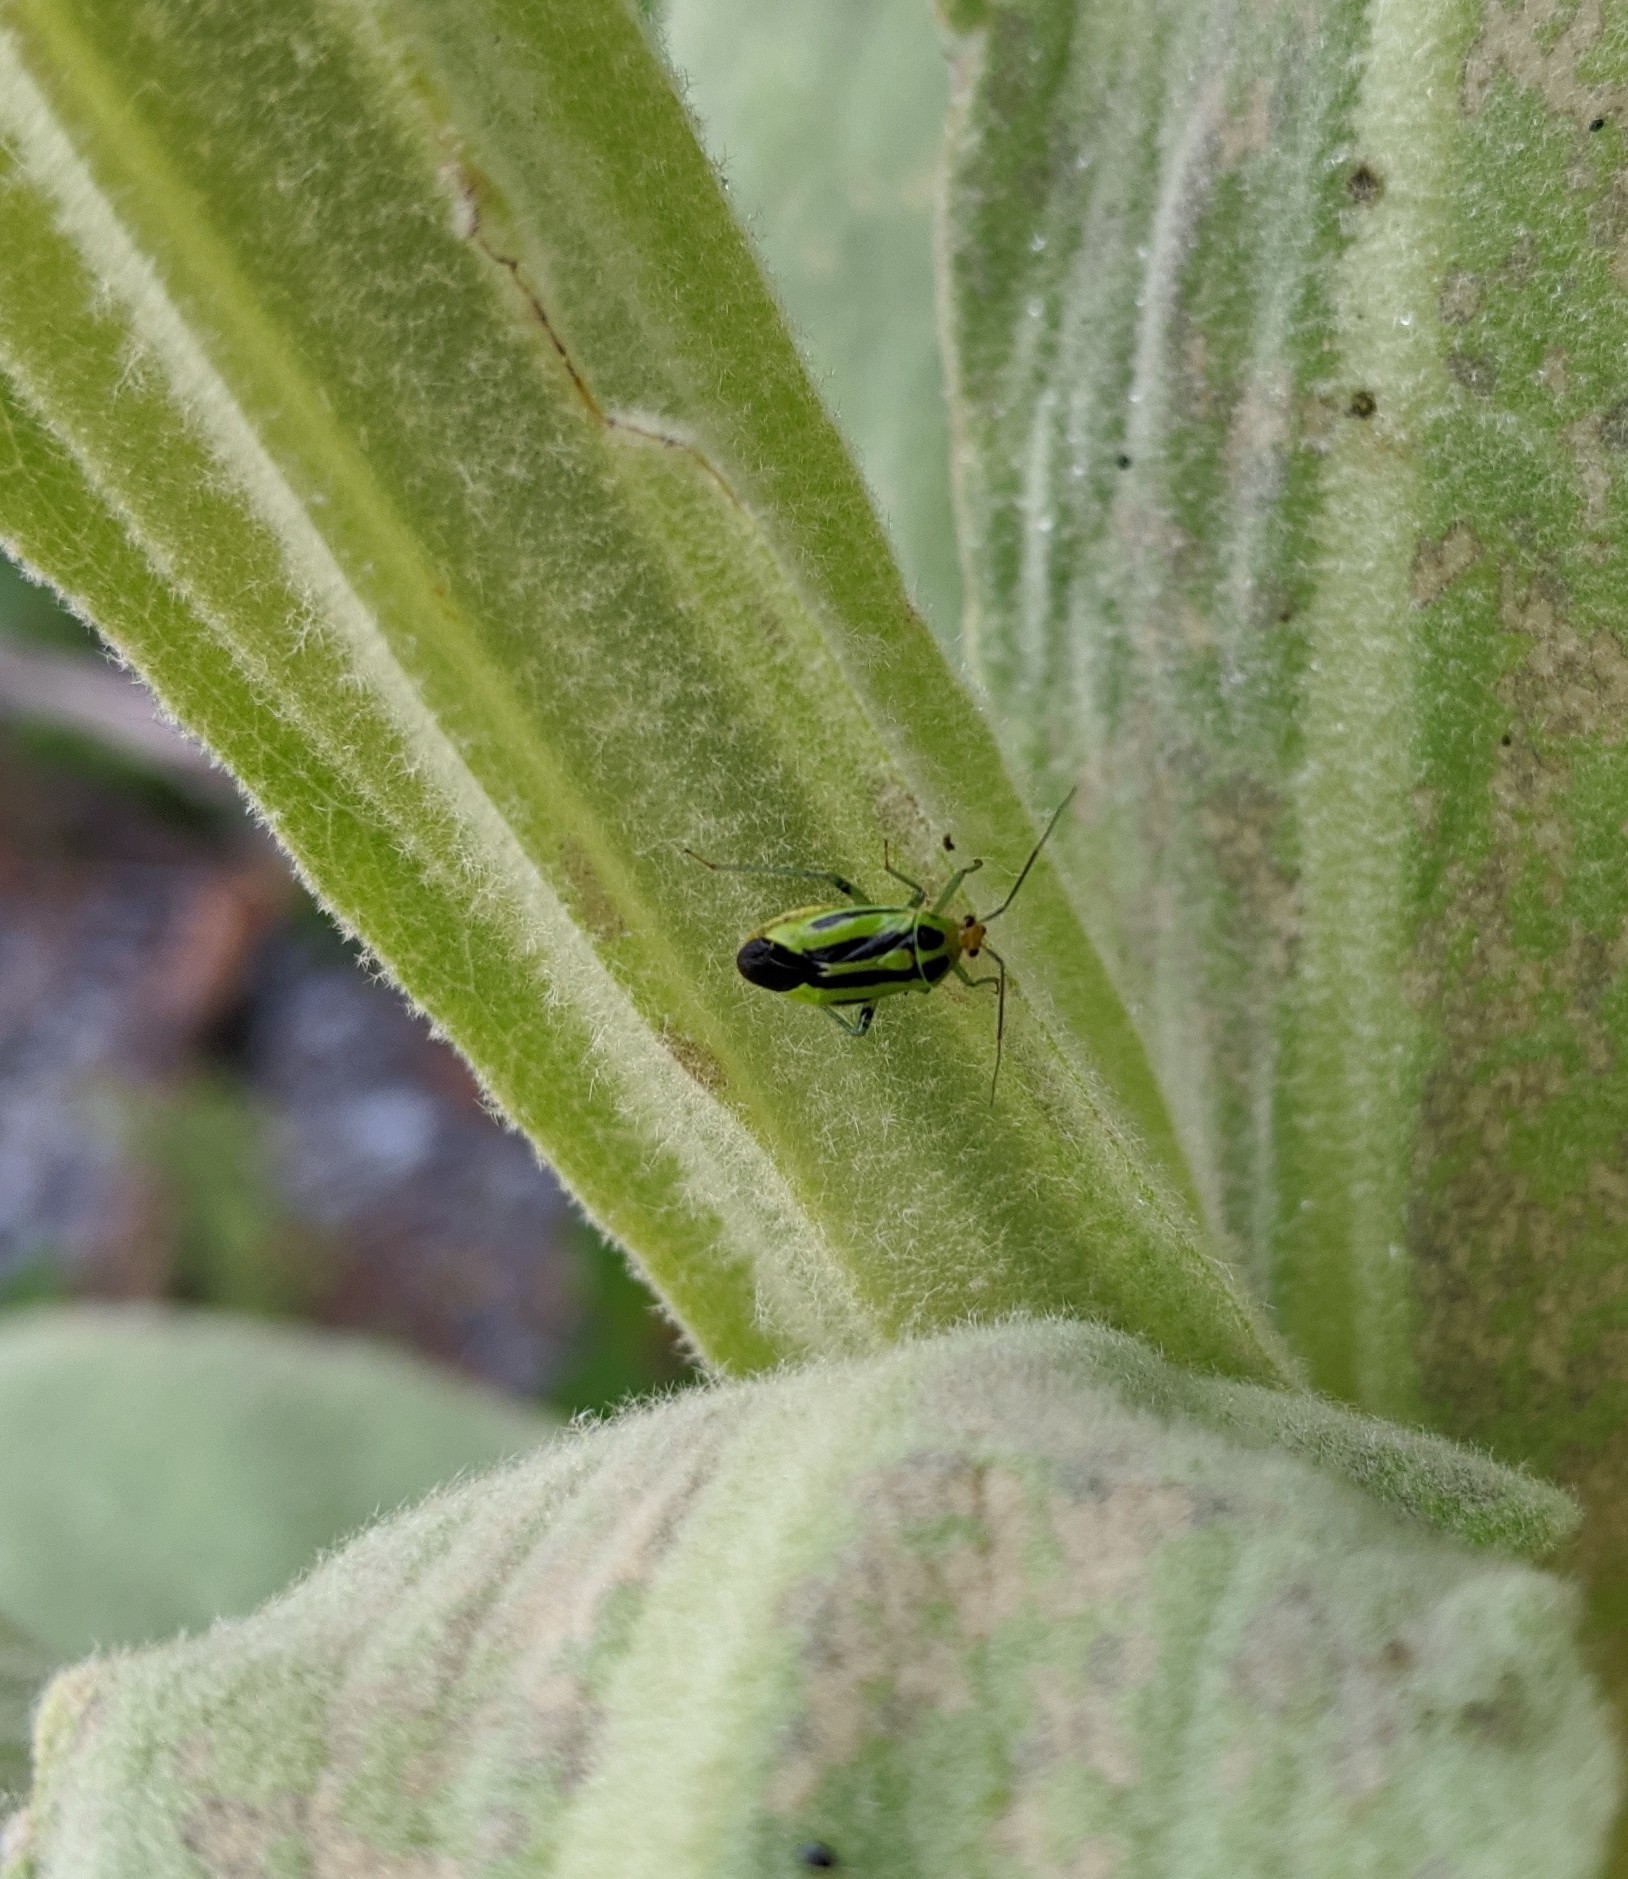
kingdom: Animalia
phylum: Arthropoda
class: Insecta
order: Hemiptera
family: Miridae
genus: Poecilocapsus
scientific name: Poecilocapsus lineatus
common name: Four-lined plant bug
